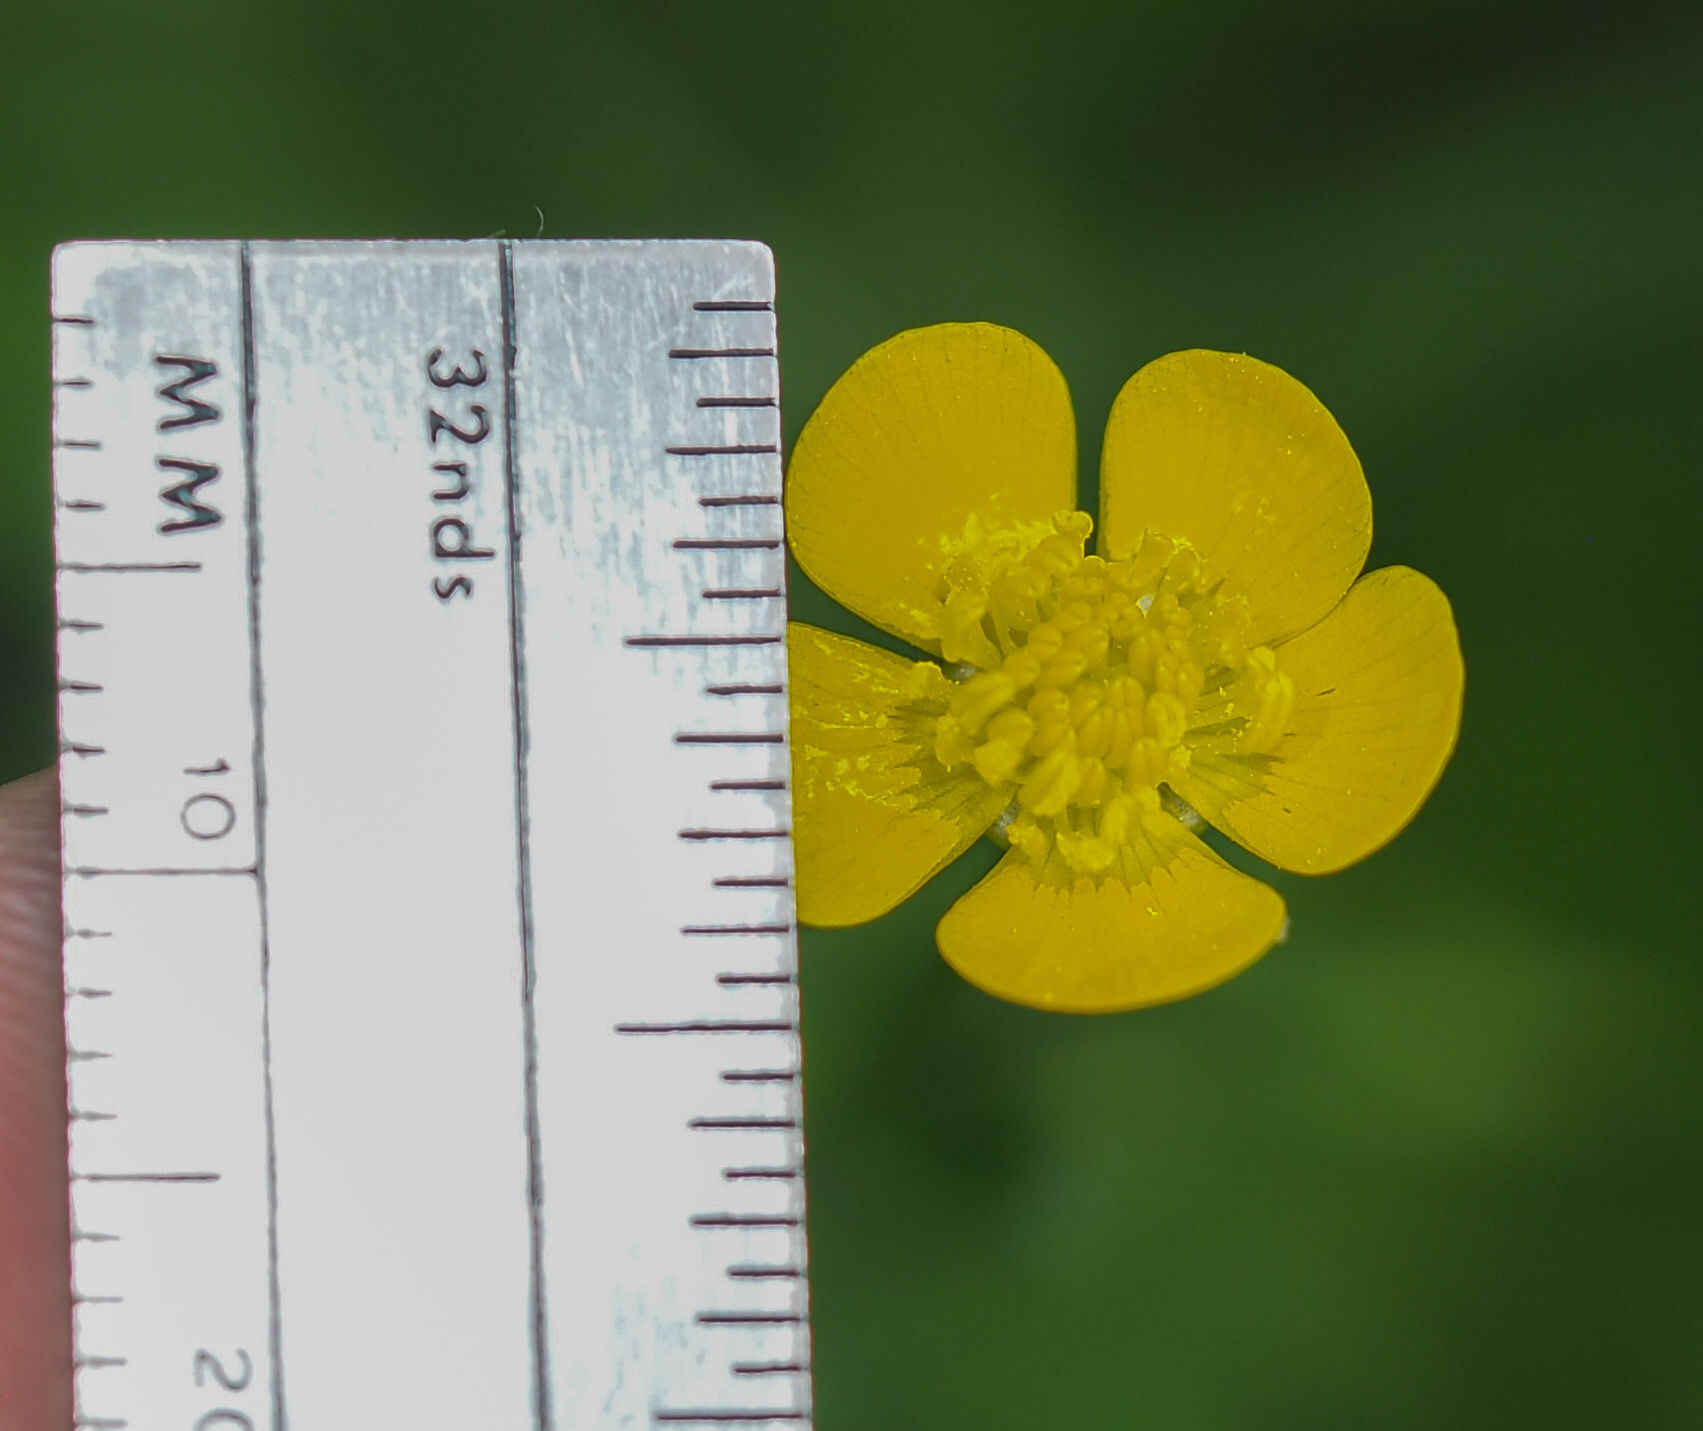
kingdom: Plantae
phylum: Tracheophyta
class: Magnoliopsida
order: Ranunculales
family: Ranunculaceae
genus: Ranunculus
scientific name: Ranunculus bulbosus
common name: Bulbous buttercup
